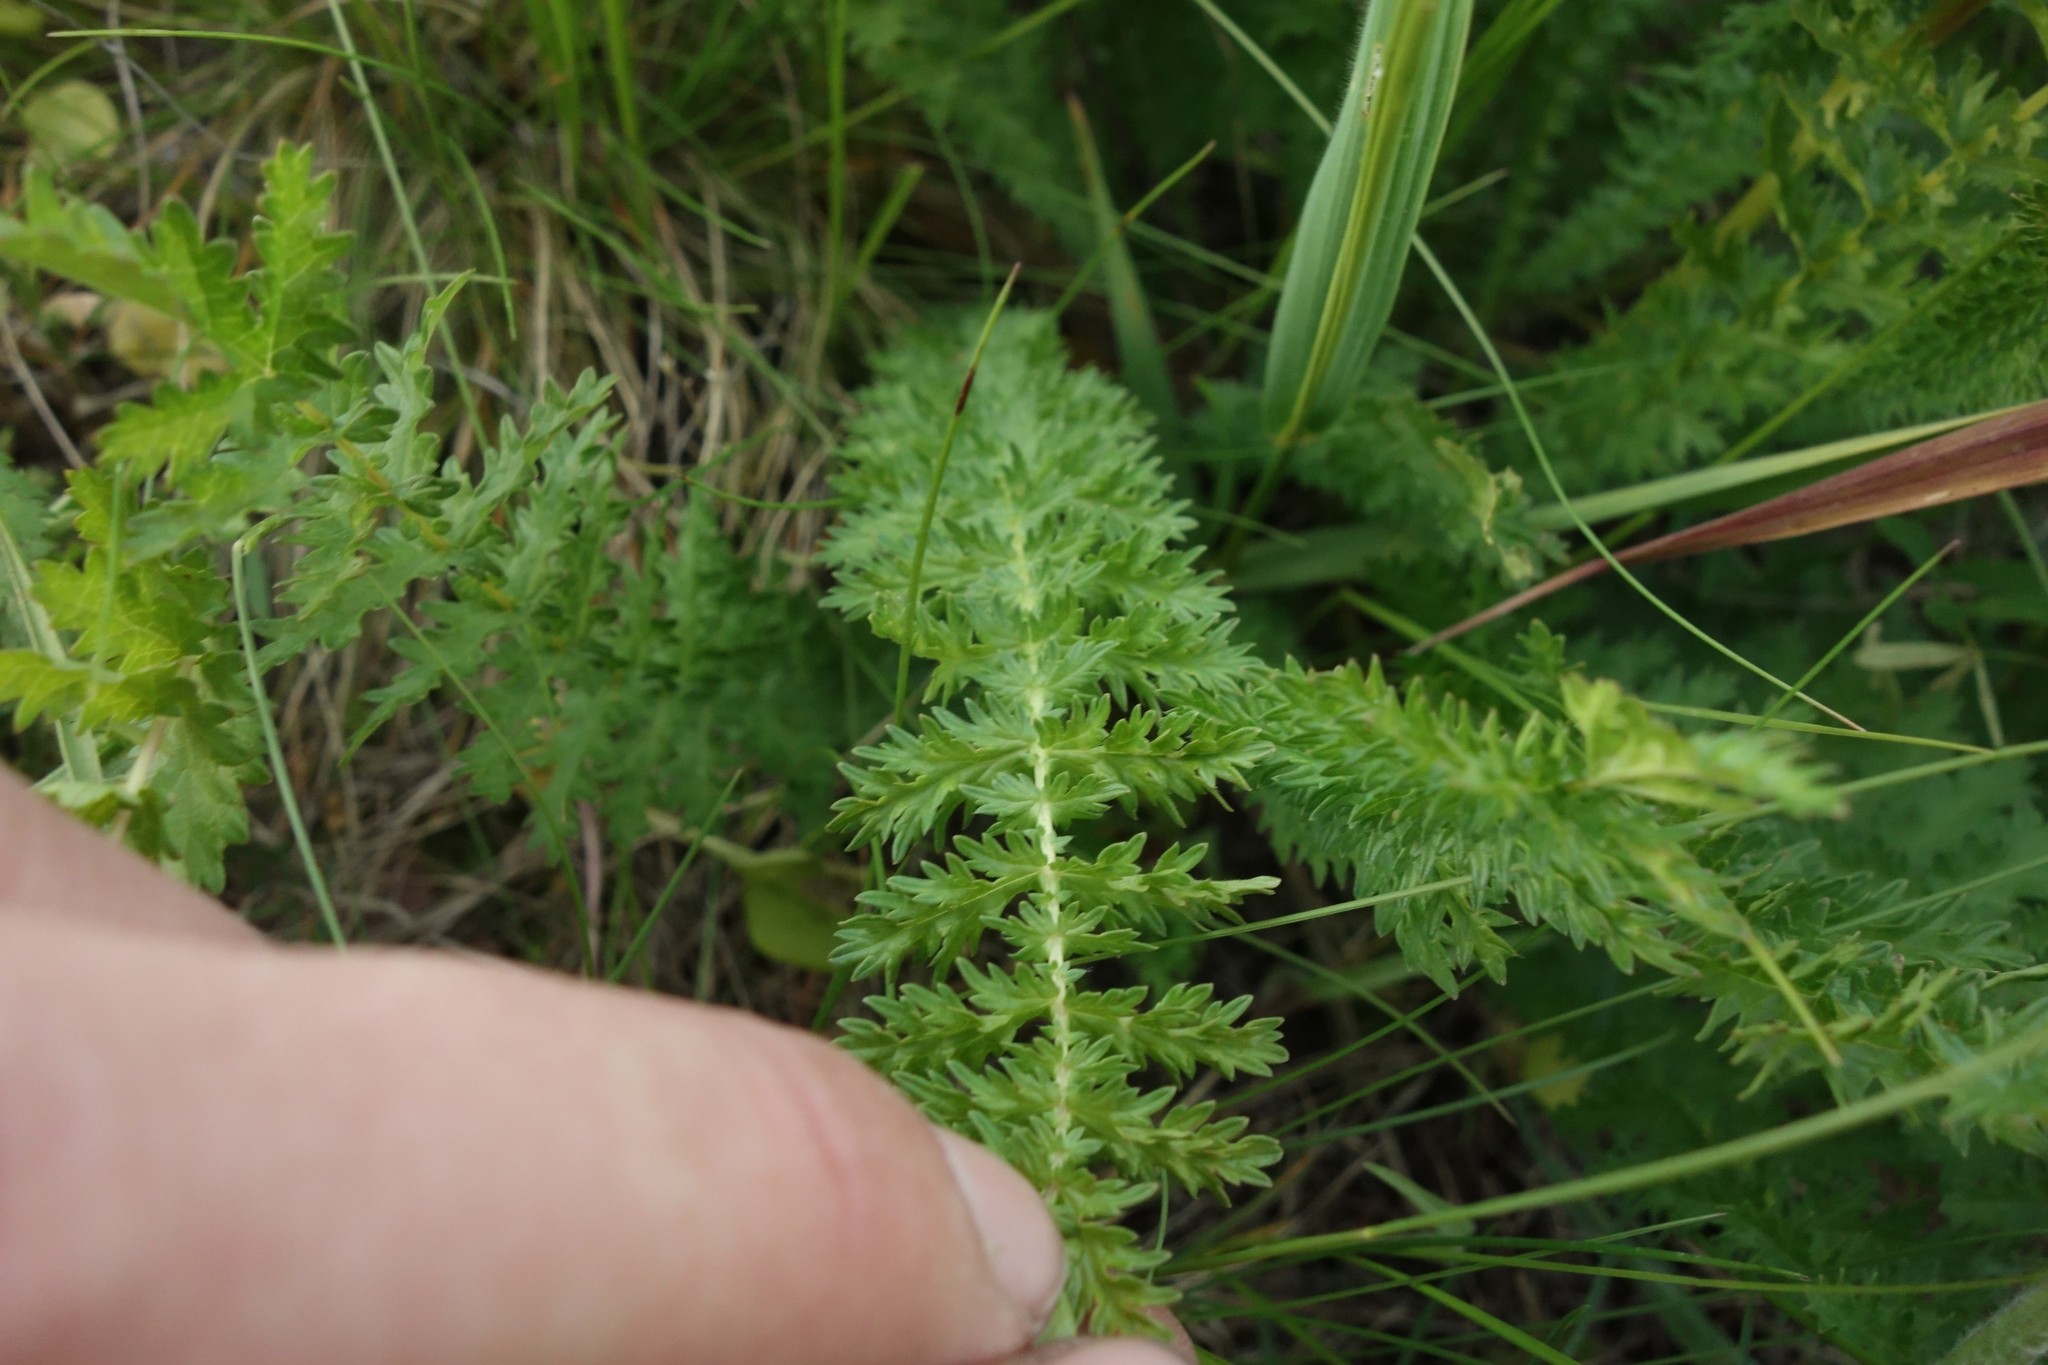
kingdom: Plantae
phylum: Tracheophyta
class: Magnoliopsida
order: Rosales
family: Rosaceae
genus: Filipendula
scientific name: Filipendula vulgaris
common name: Dropwort
